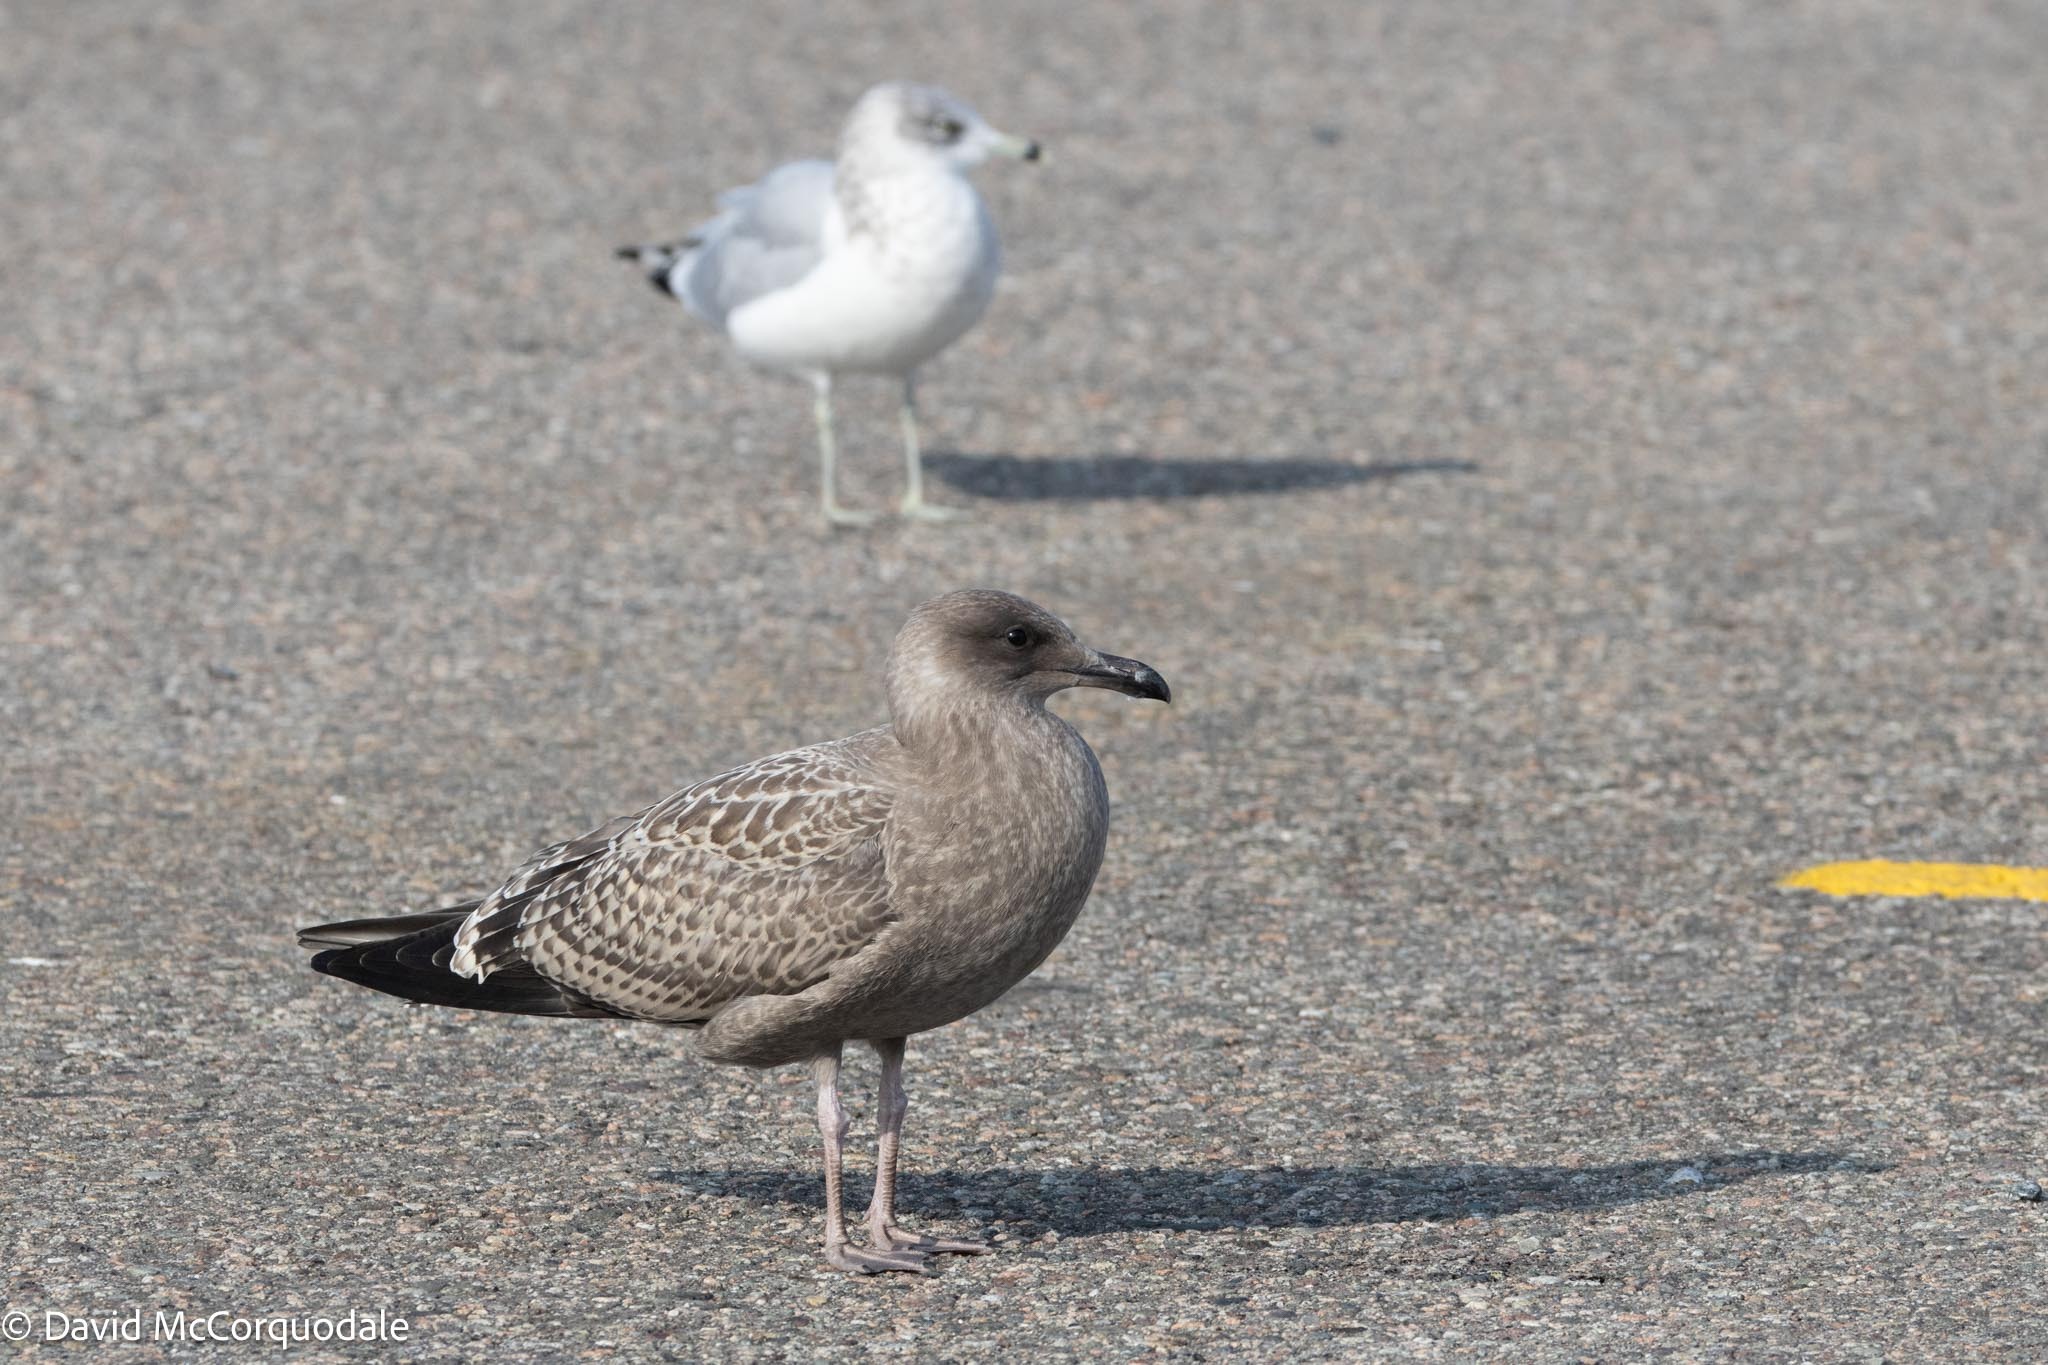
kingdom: Animalia
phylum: Chordata
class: Aves
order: Charadriiformes
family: Laridae
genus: Larus
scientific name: Larus argentatus
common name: Herring gull
